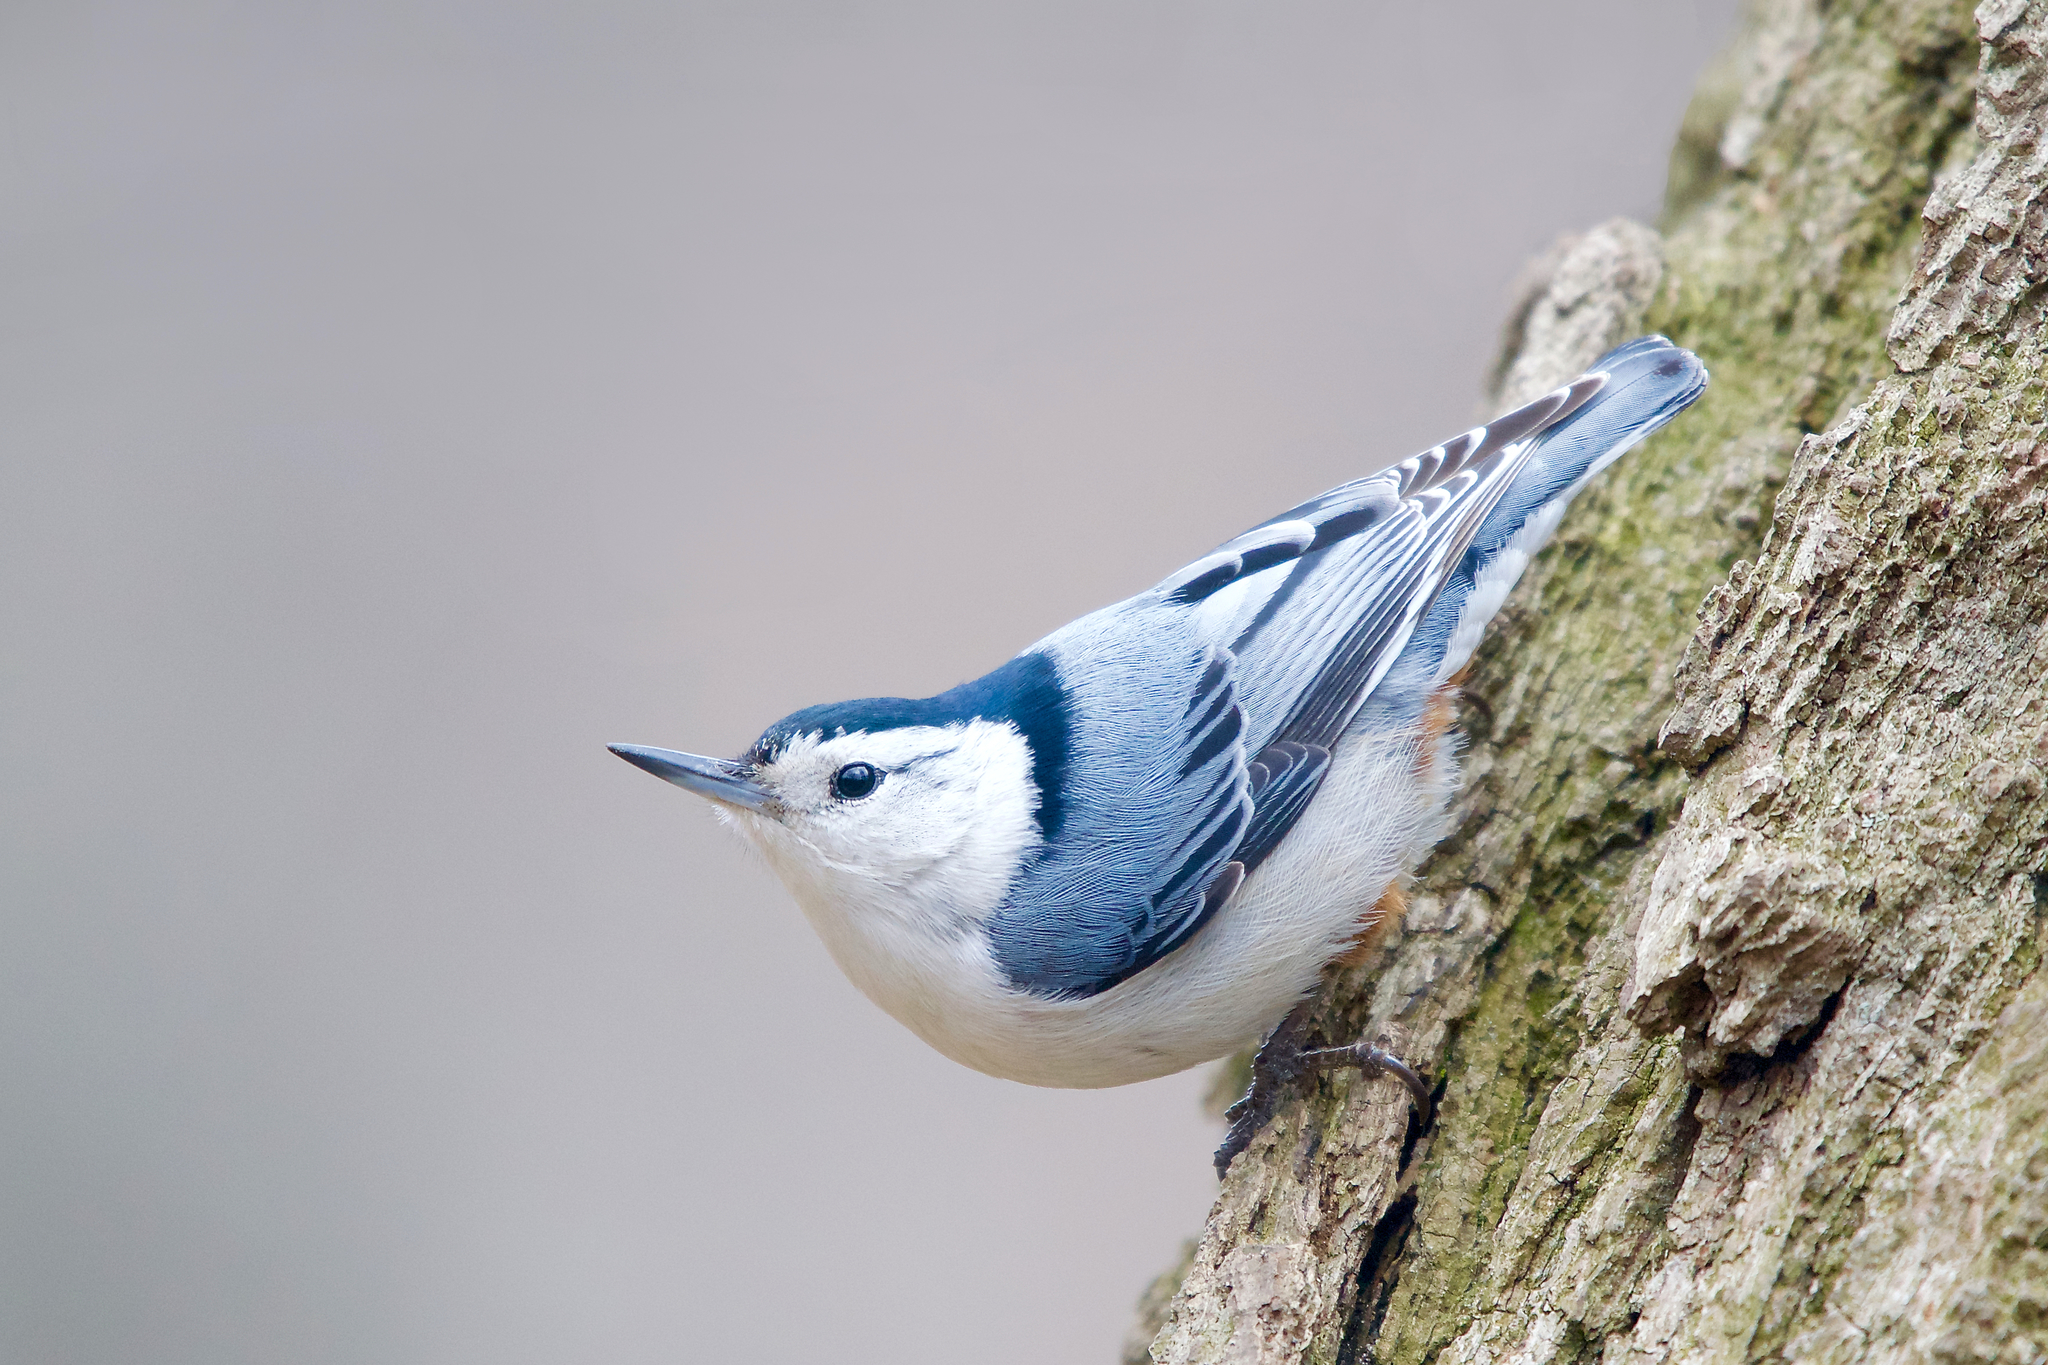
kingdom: Animalia
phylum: Chordata
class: Aves
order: Passeriformes
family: Sittidae
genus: Sitta
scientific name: Sitta carolinensis
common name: White-breasted nuthatch
